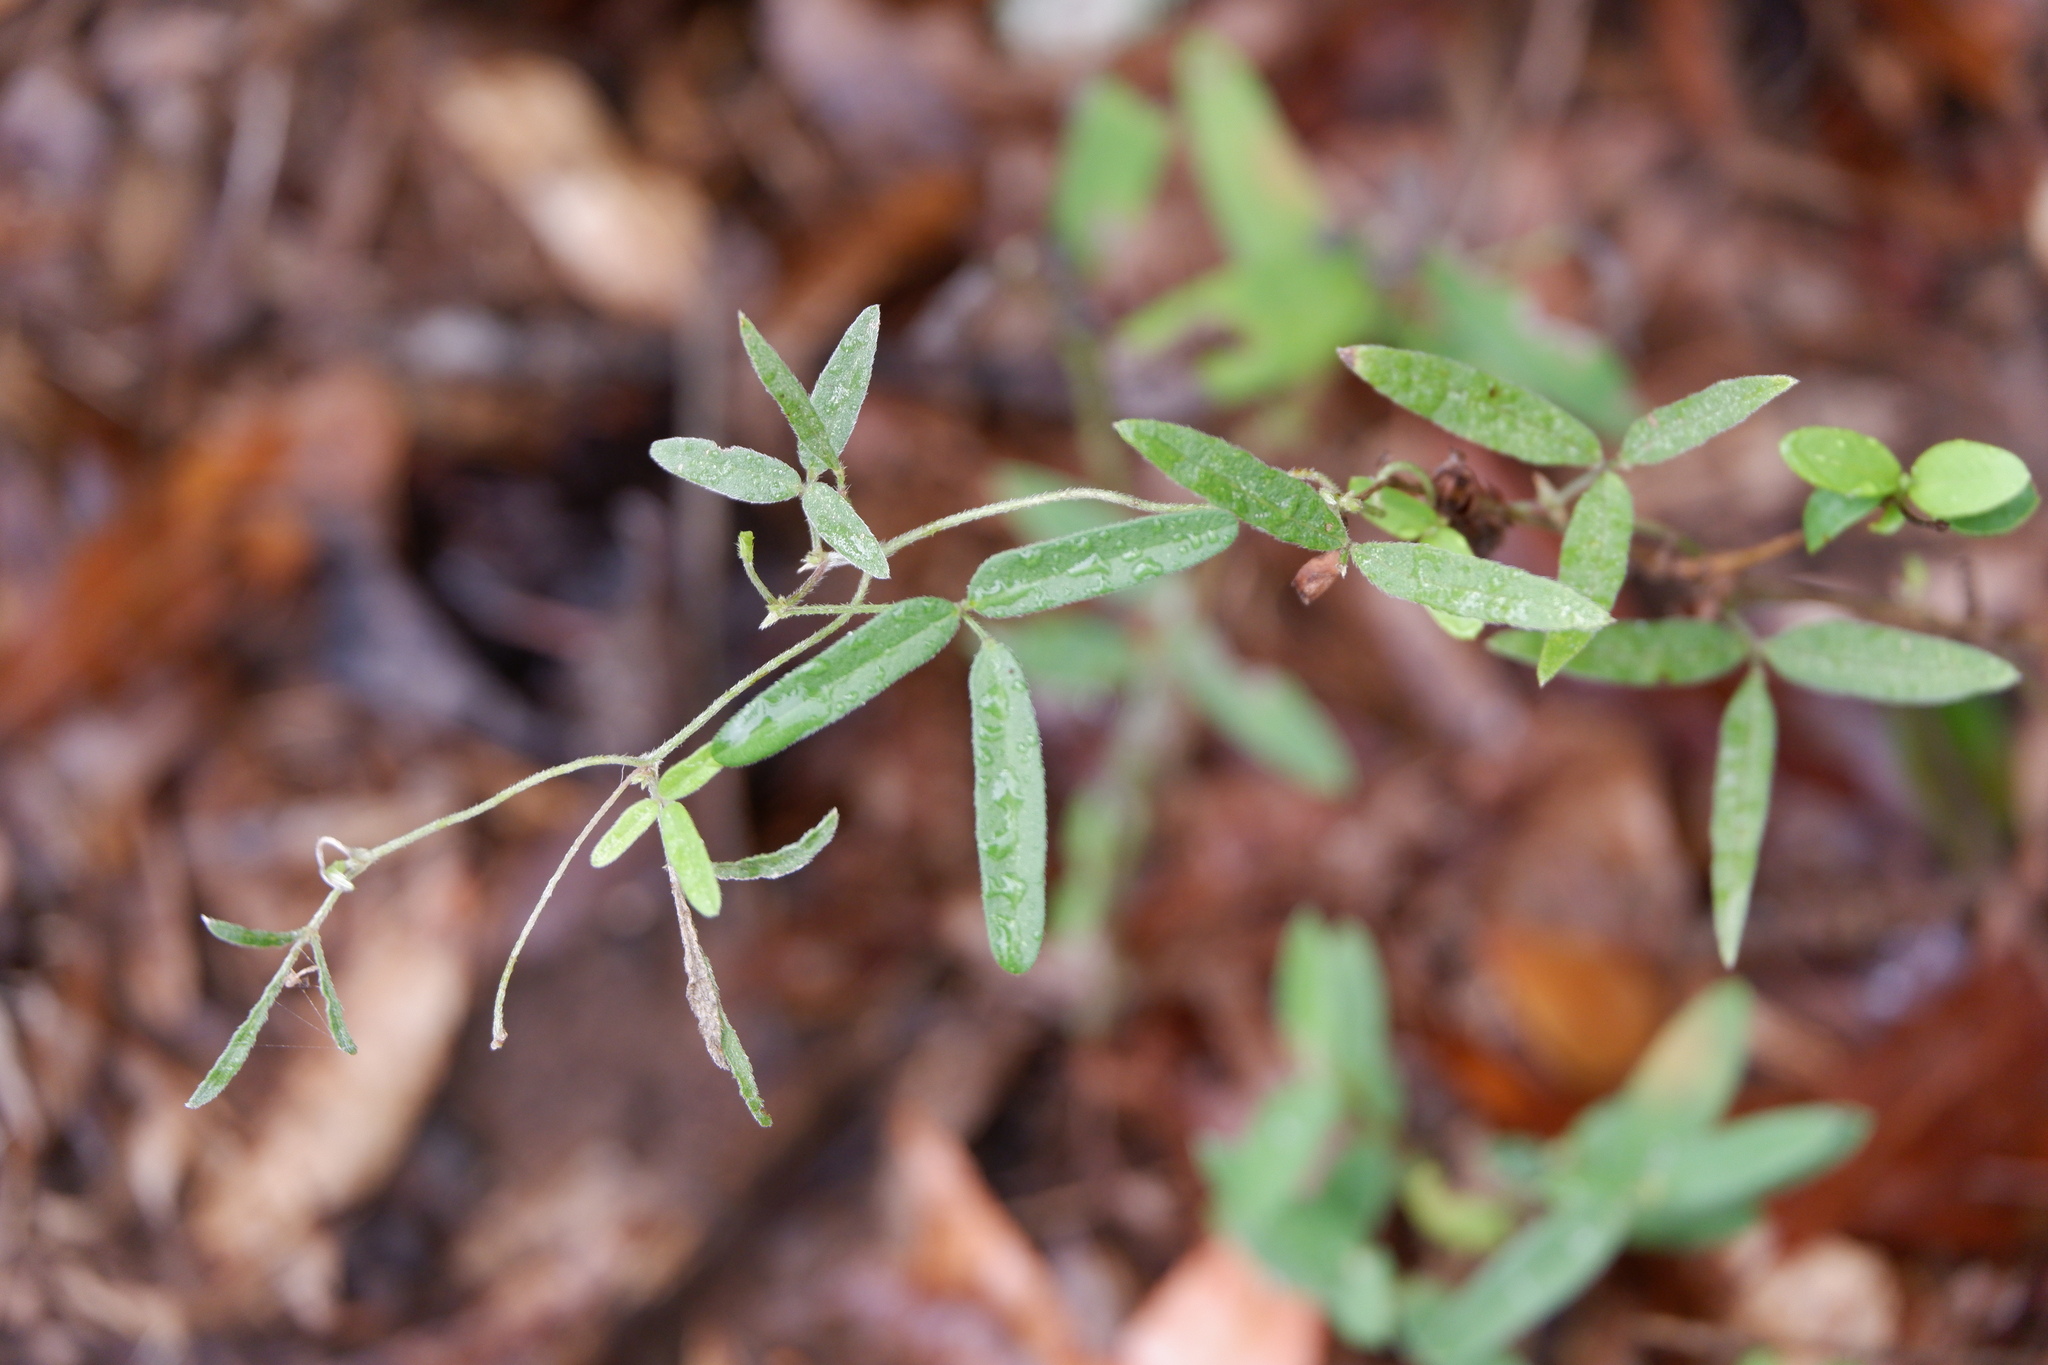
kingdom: Plantae
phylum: Tracheophyta
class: Magnoliopsida
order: Fabales
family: Fabaceae
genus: Strophostyles
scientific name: Strophostyles leiosperma
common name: Smooth-seed wild bean
